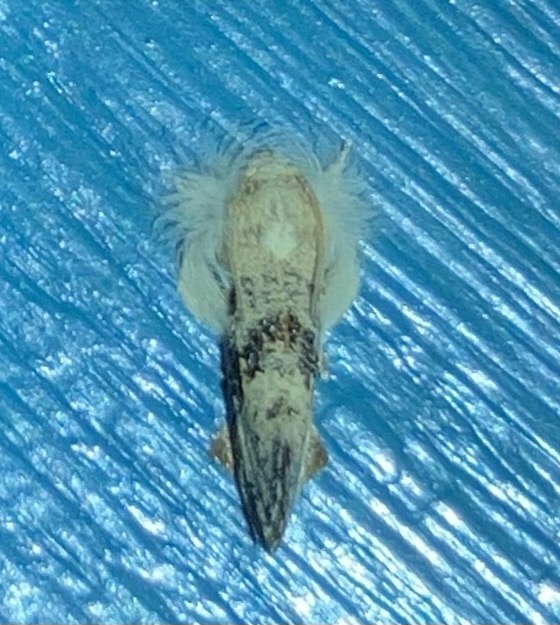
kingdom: Animalia
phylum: Arthropoda
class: Insecta
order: Lepidoptera
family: Tineidae
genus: Acrolophus
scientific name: Acrolophus mycetophagus
